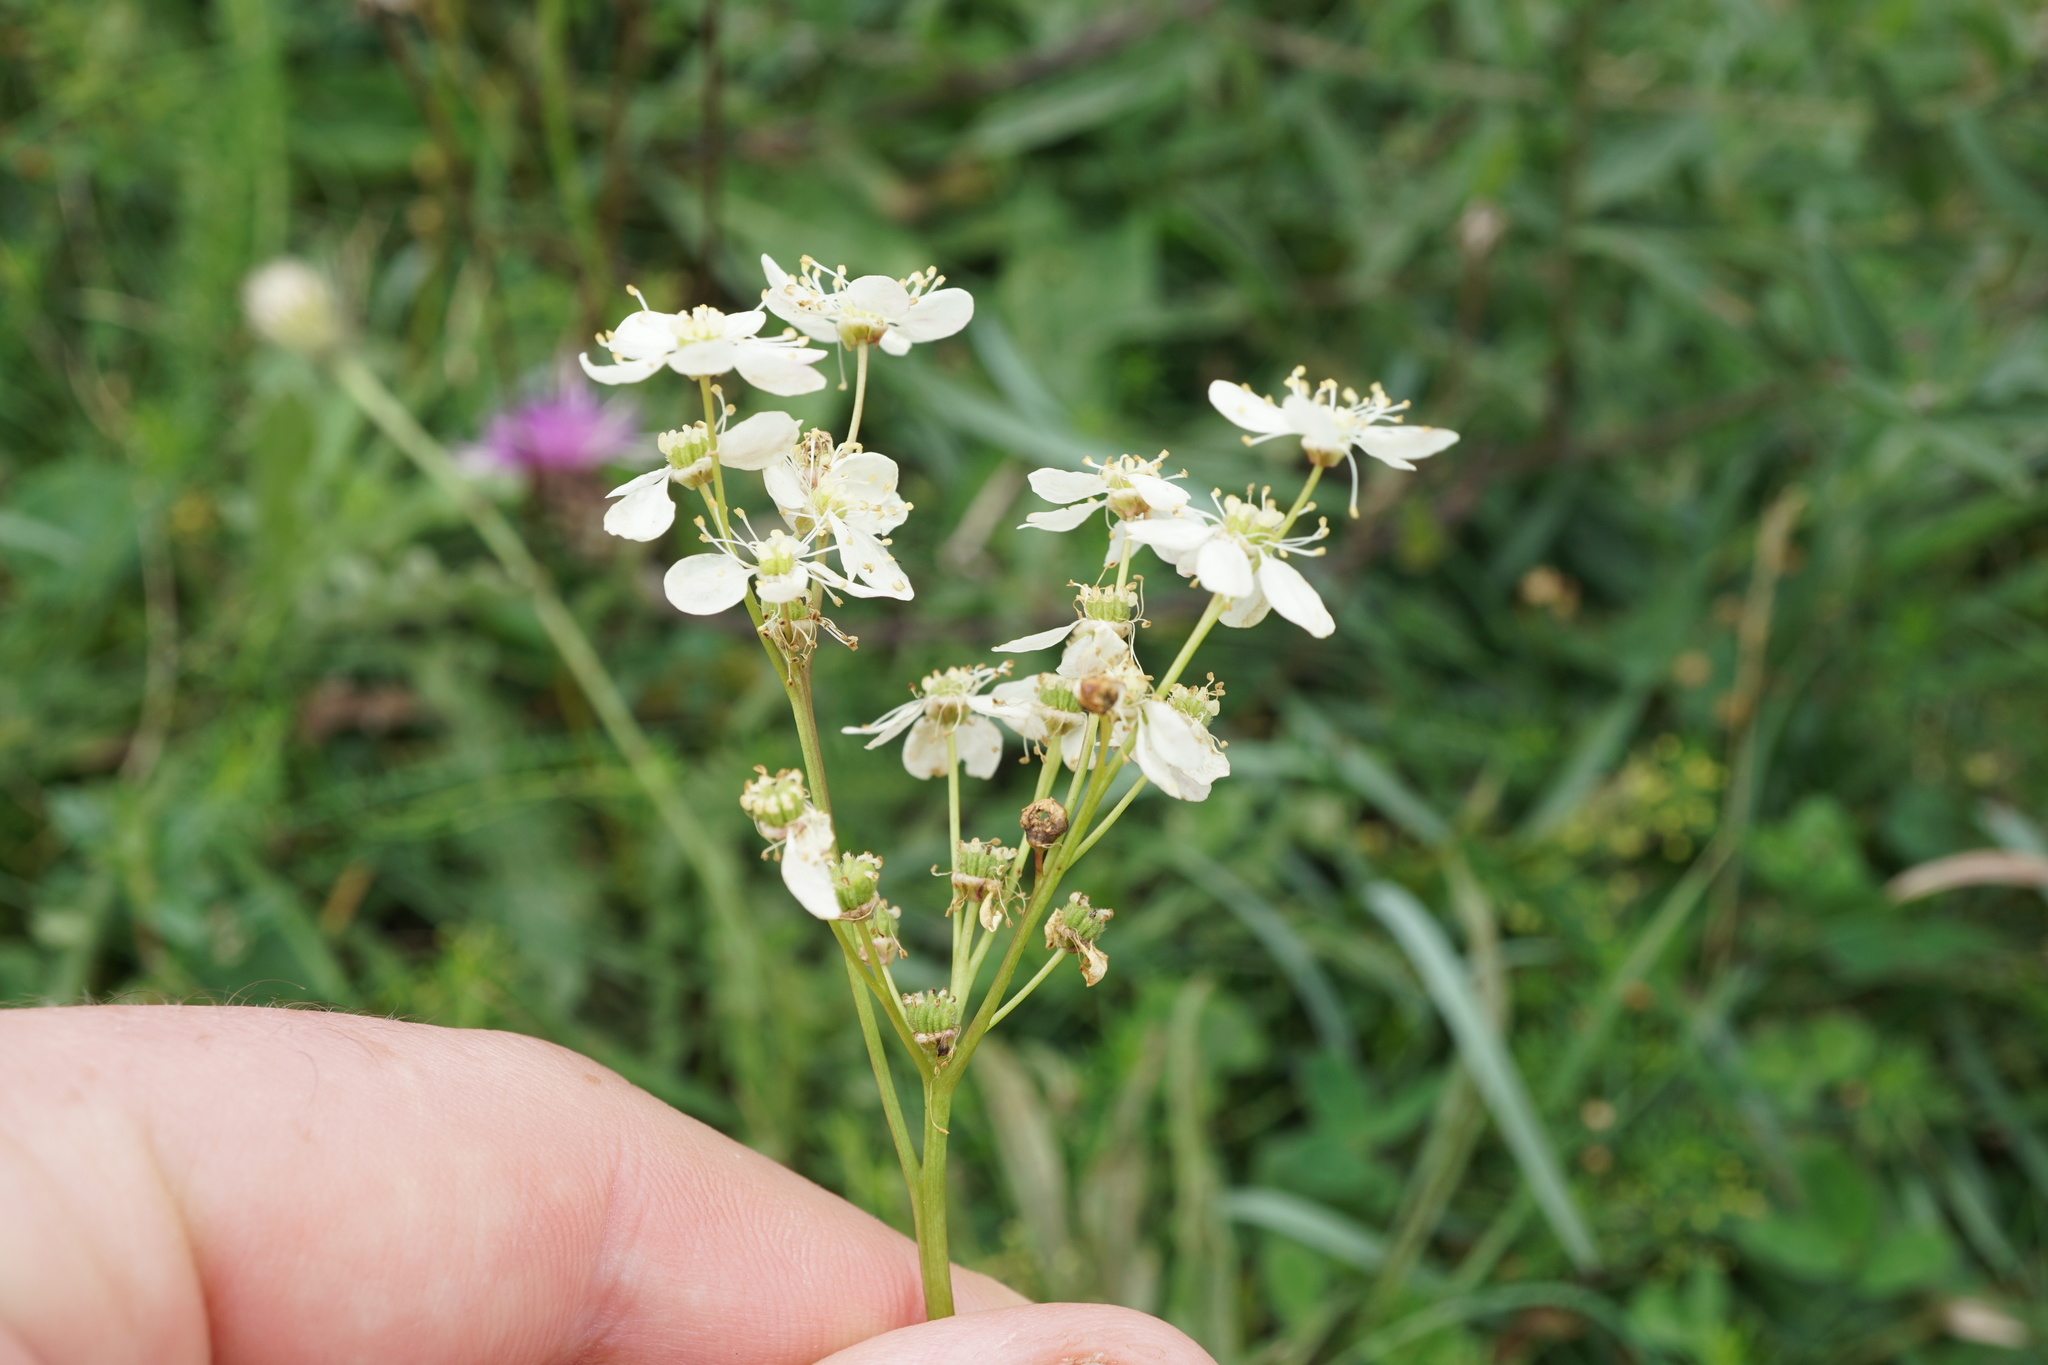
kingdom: Plantae
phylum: Tracheophyta
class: Magnoliopsida
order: Rosales
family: Rosaceae
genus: Filipendula
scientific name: Filipendula vulgaris
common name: Dropwort
